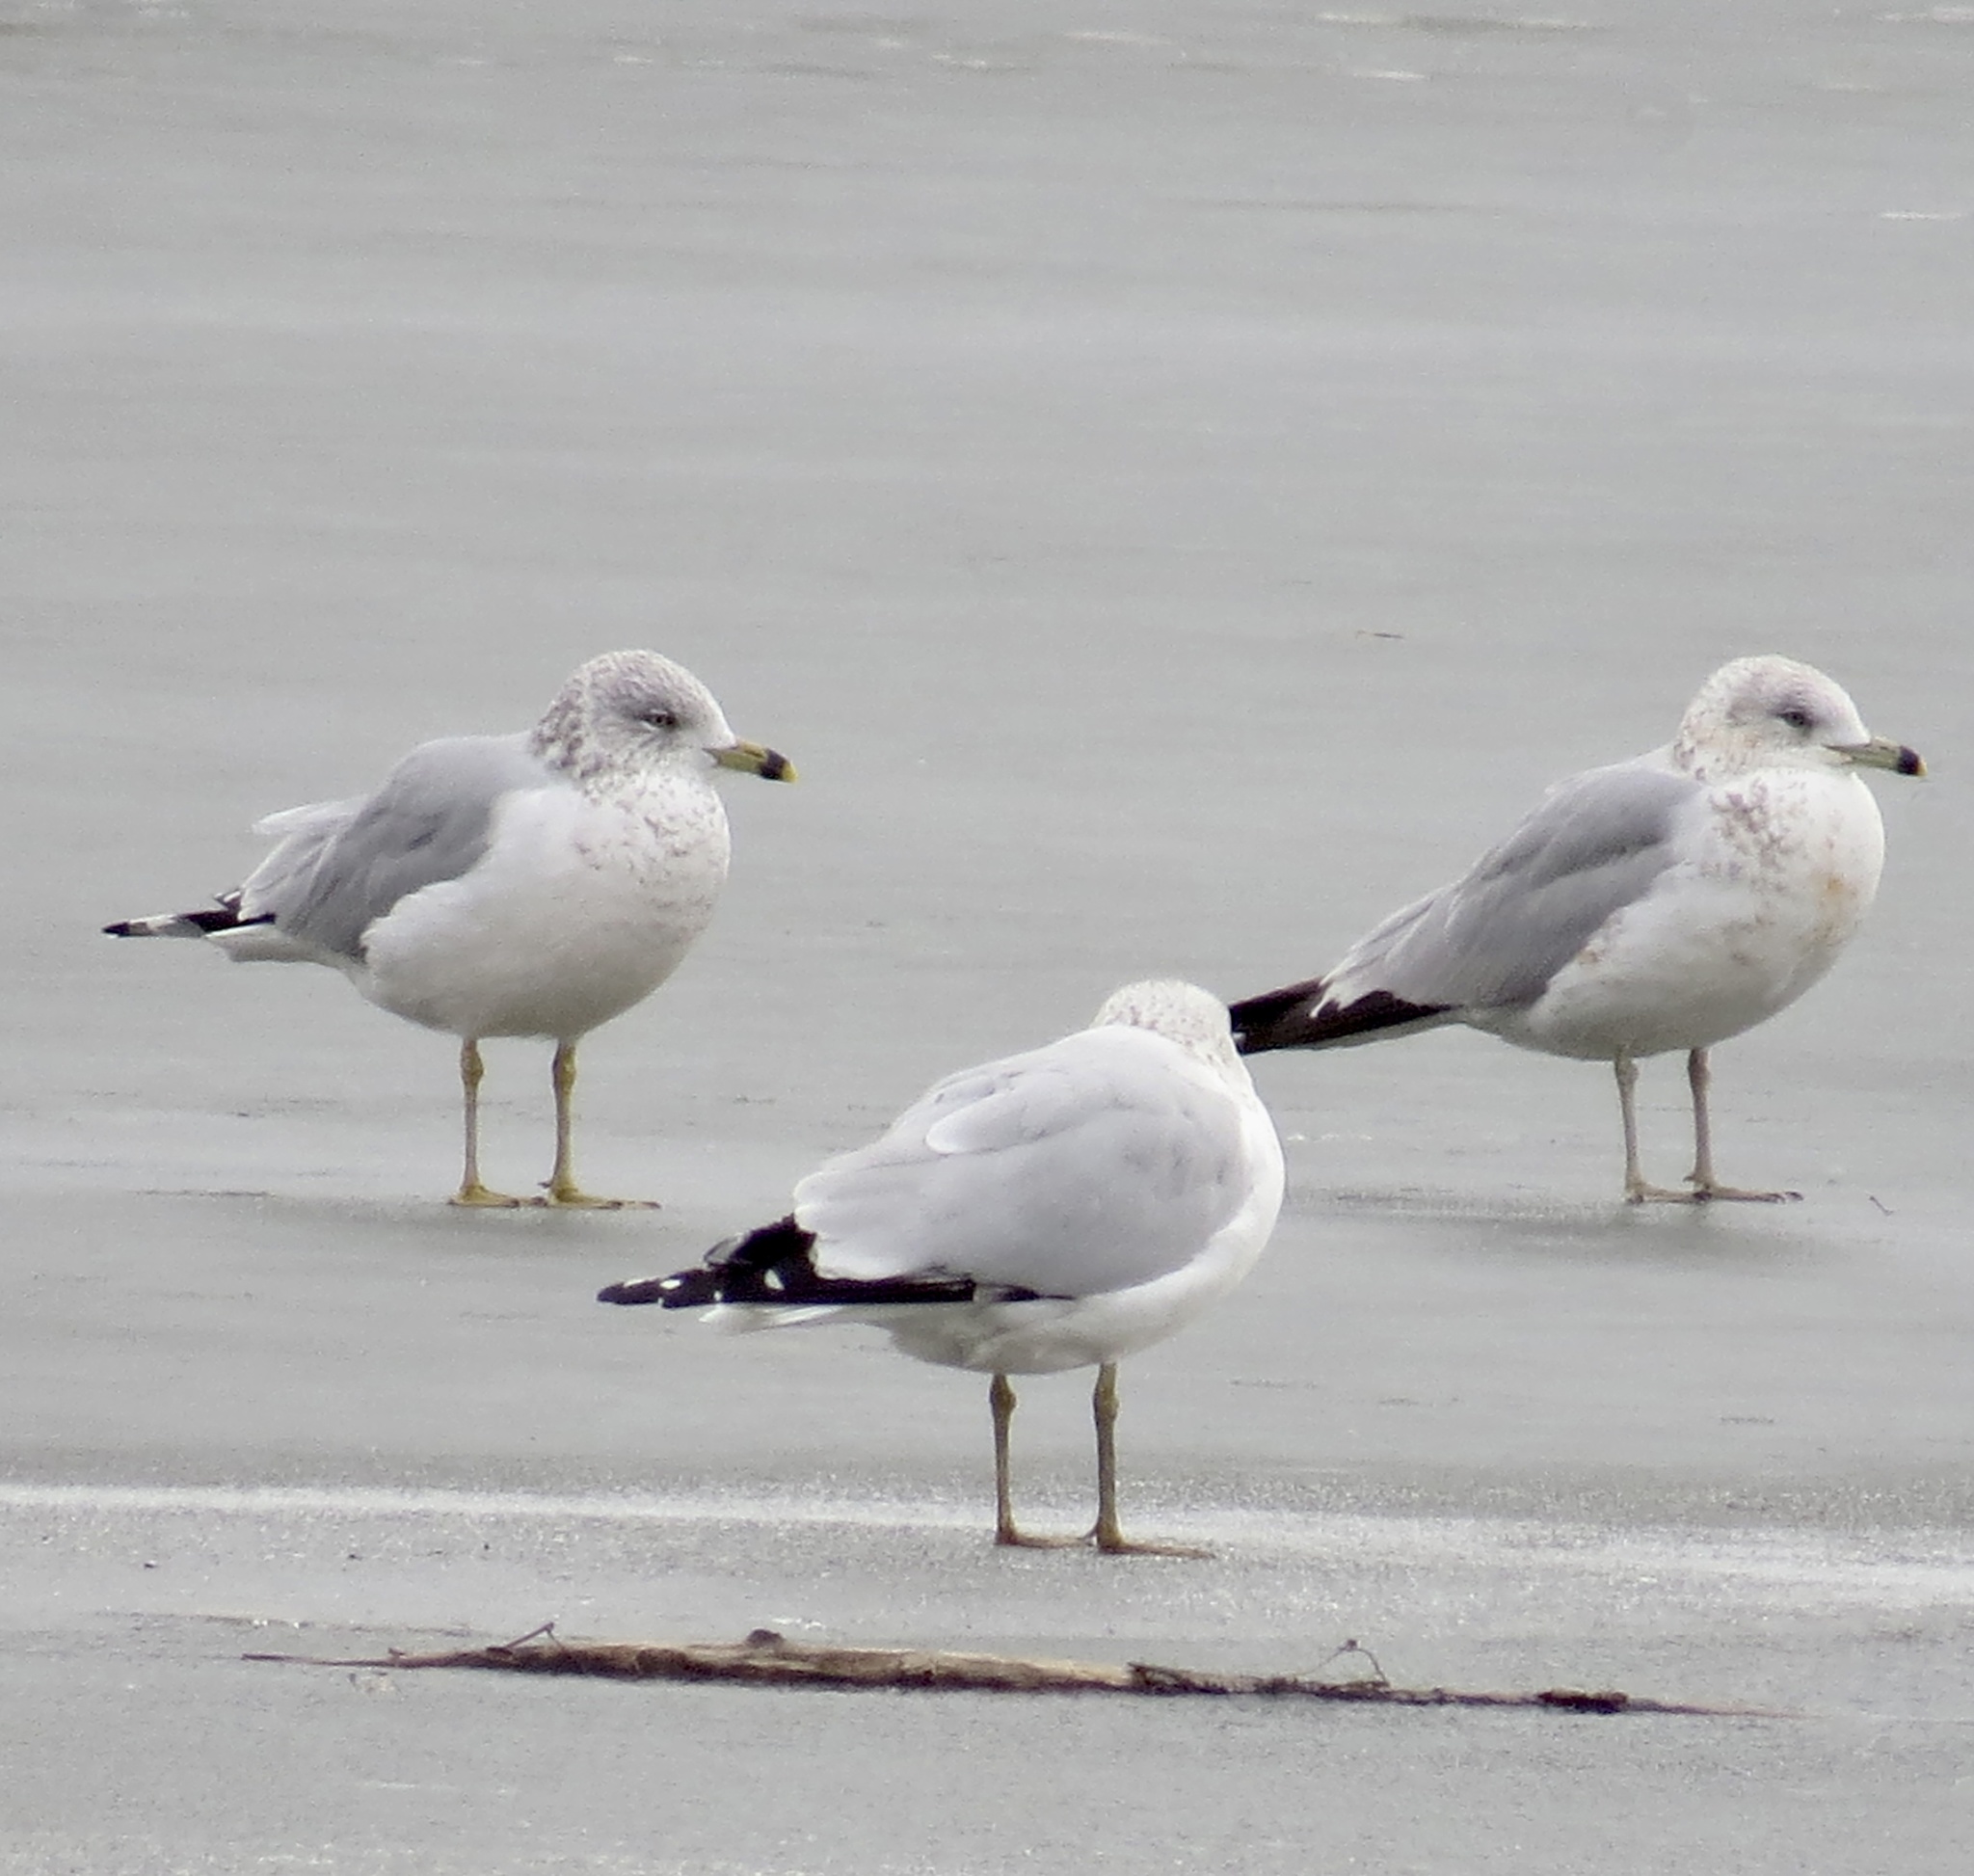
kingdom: Animalia
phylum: Chordata
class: Aves
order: Charadriiformes
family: Laridae
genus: Larus
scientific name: Larus delawarensis
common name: Ring-billed gull
